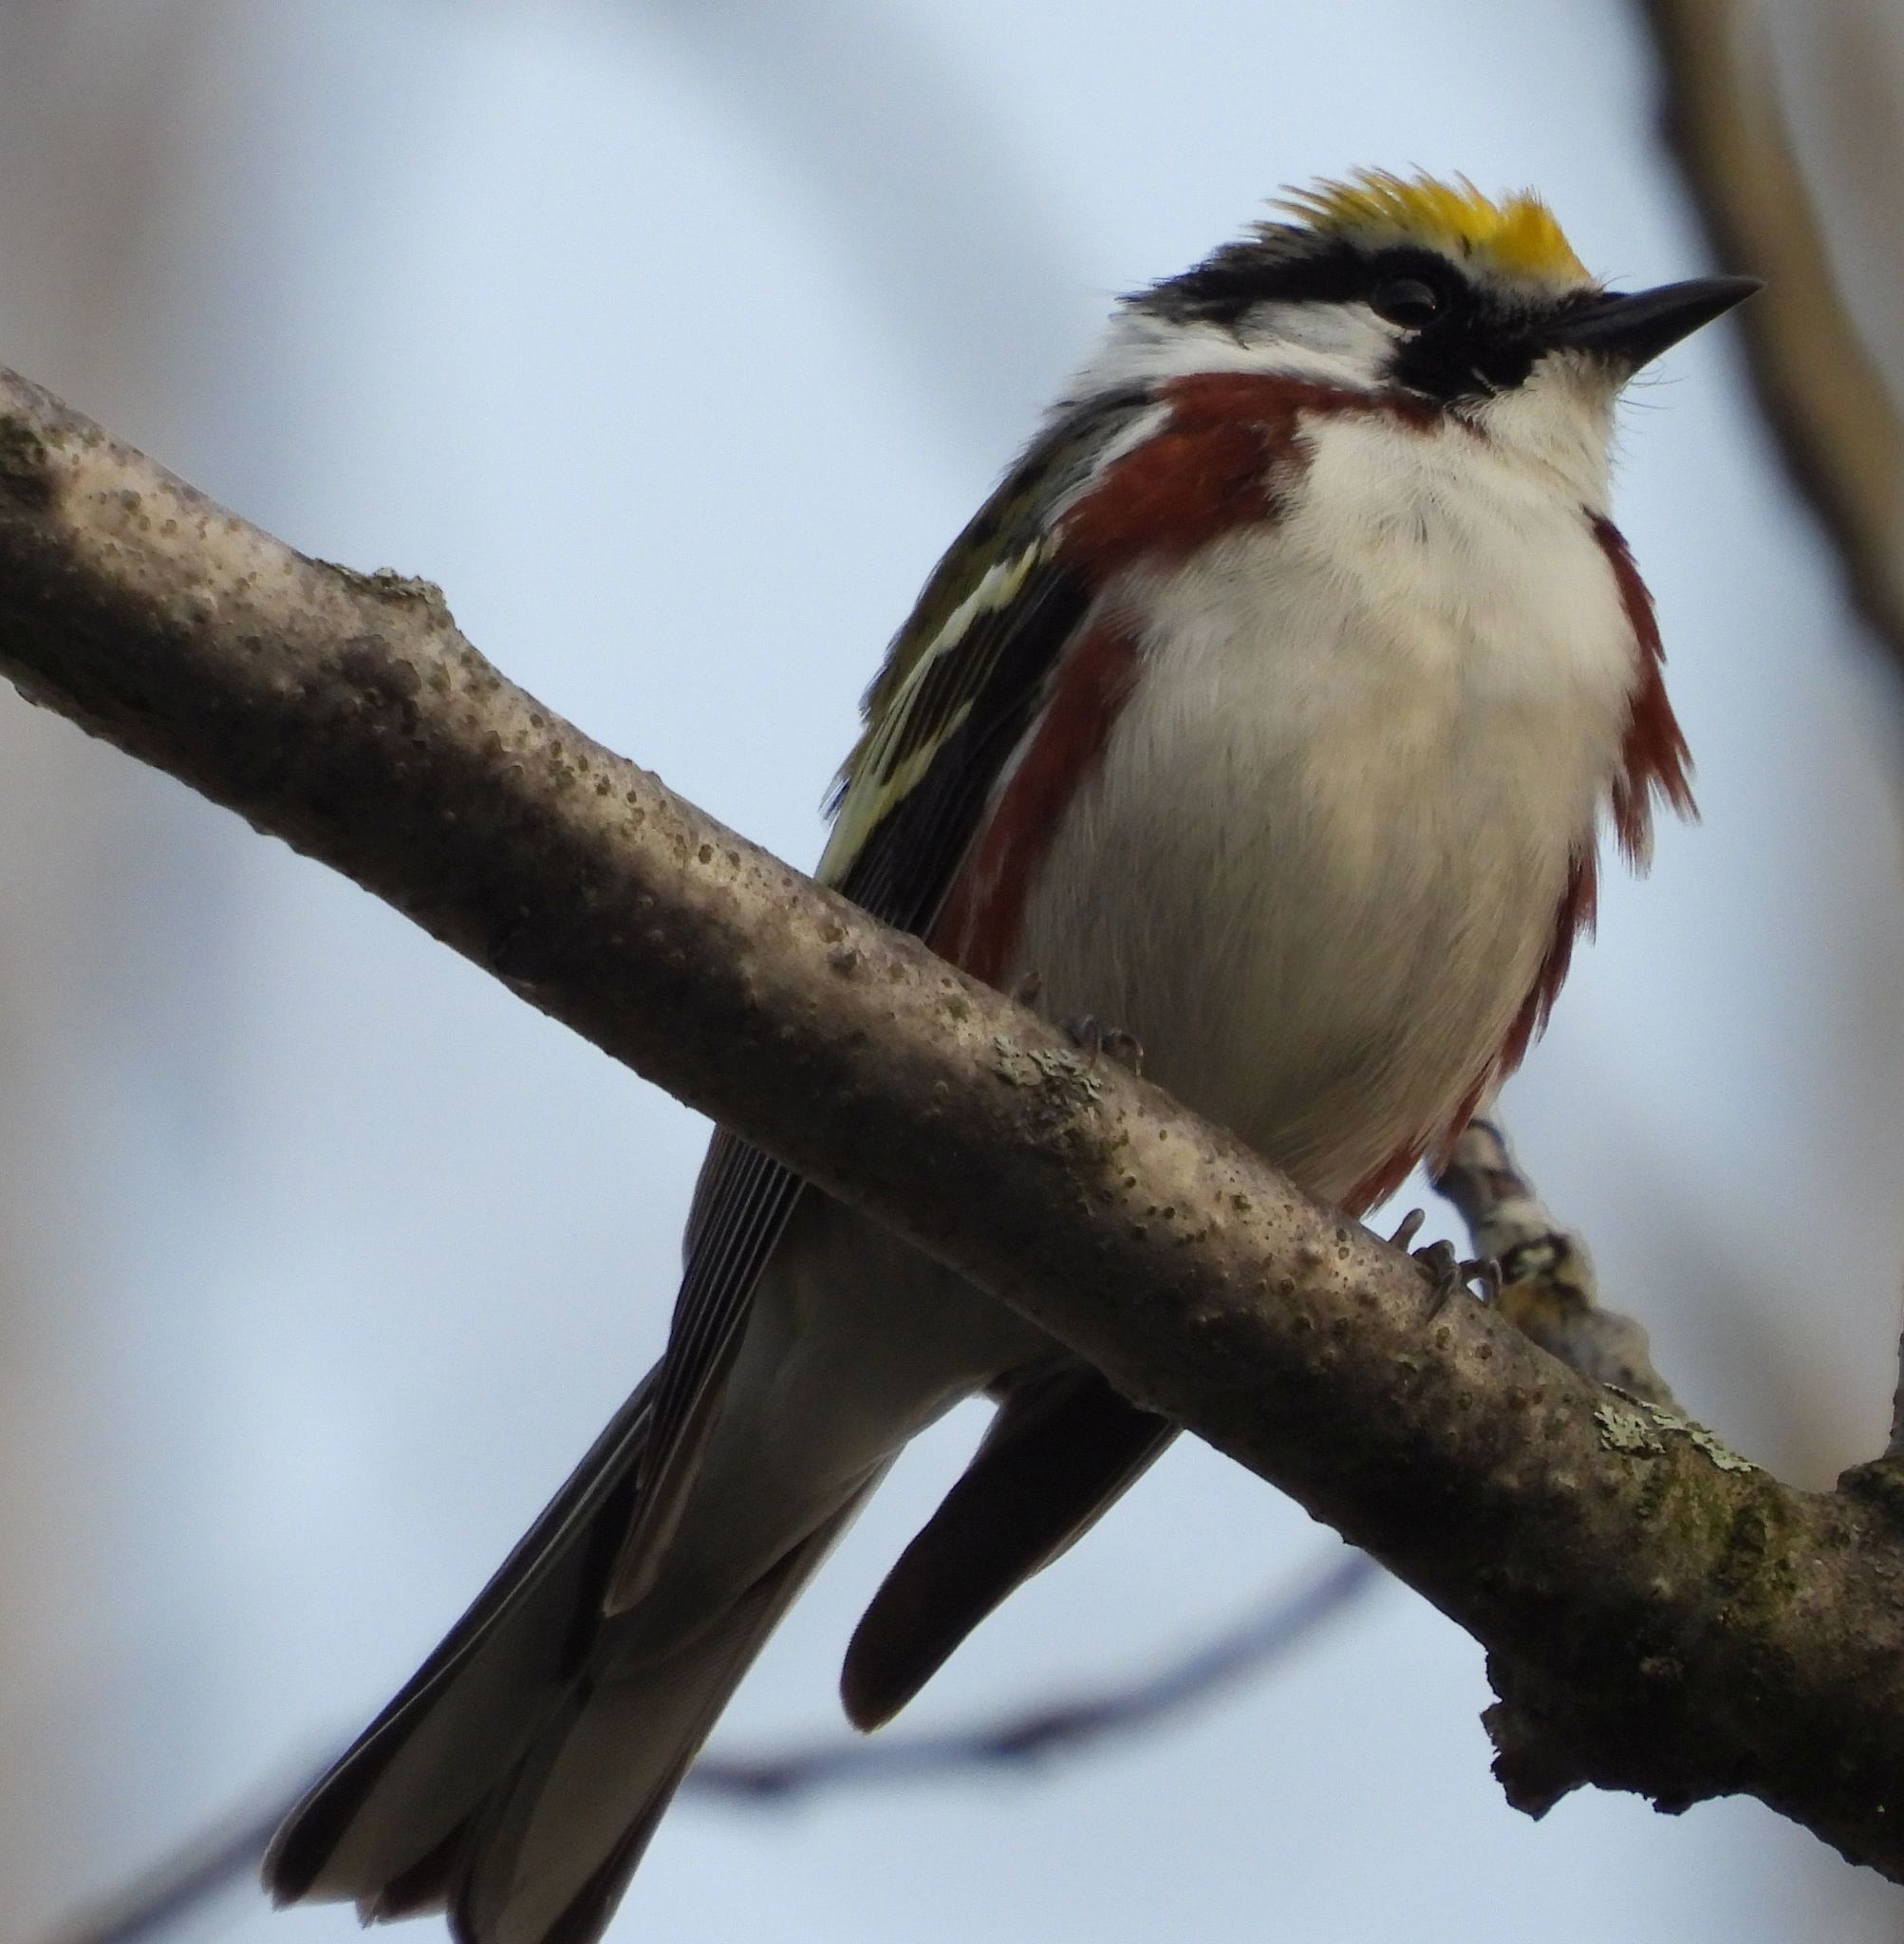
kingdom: Animalia
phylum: Chordata
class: Aves
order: Passeriformes
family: Parulidae
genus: Setophaga
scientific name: Setophaga pensylvanica
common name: Chestnut-sided warbler
